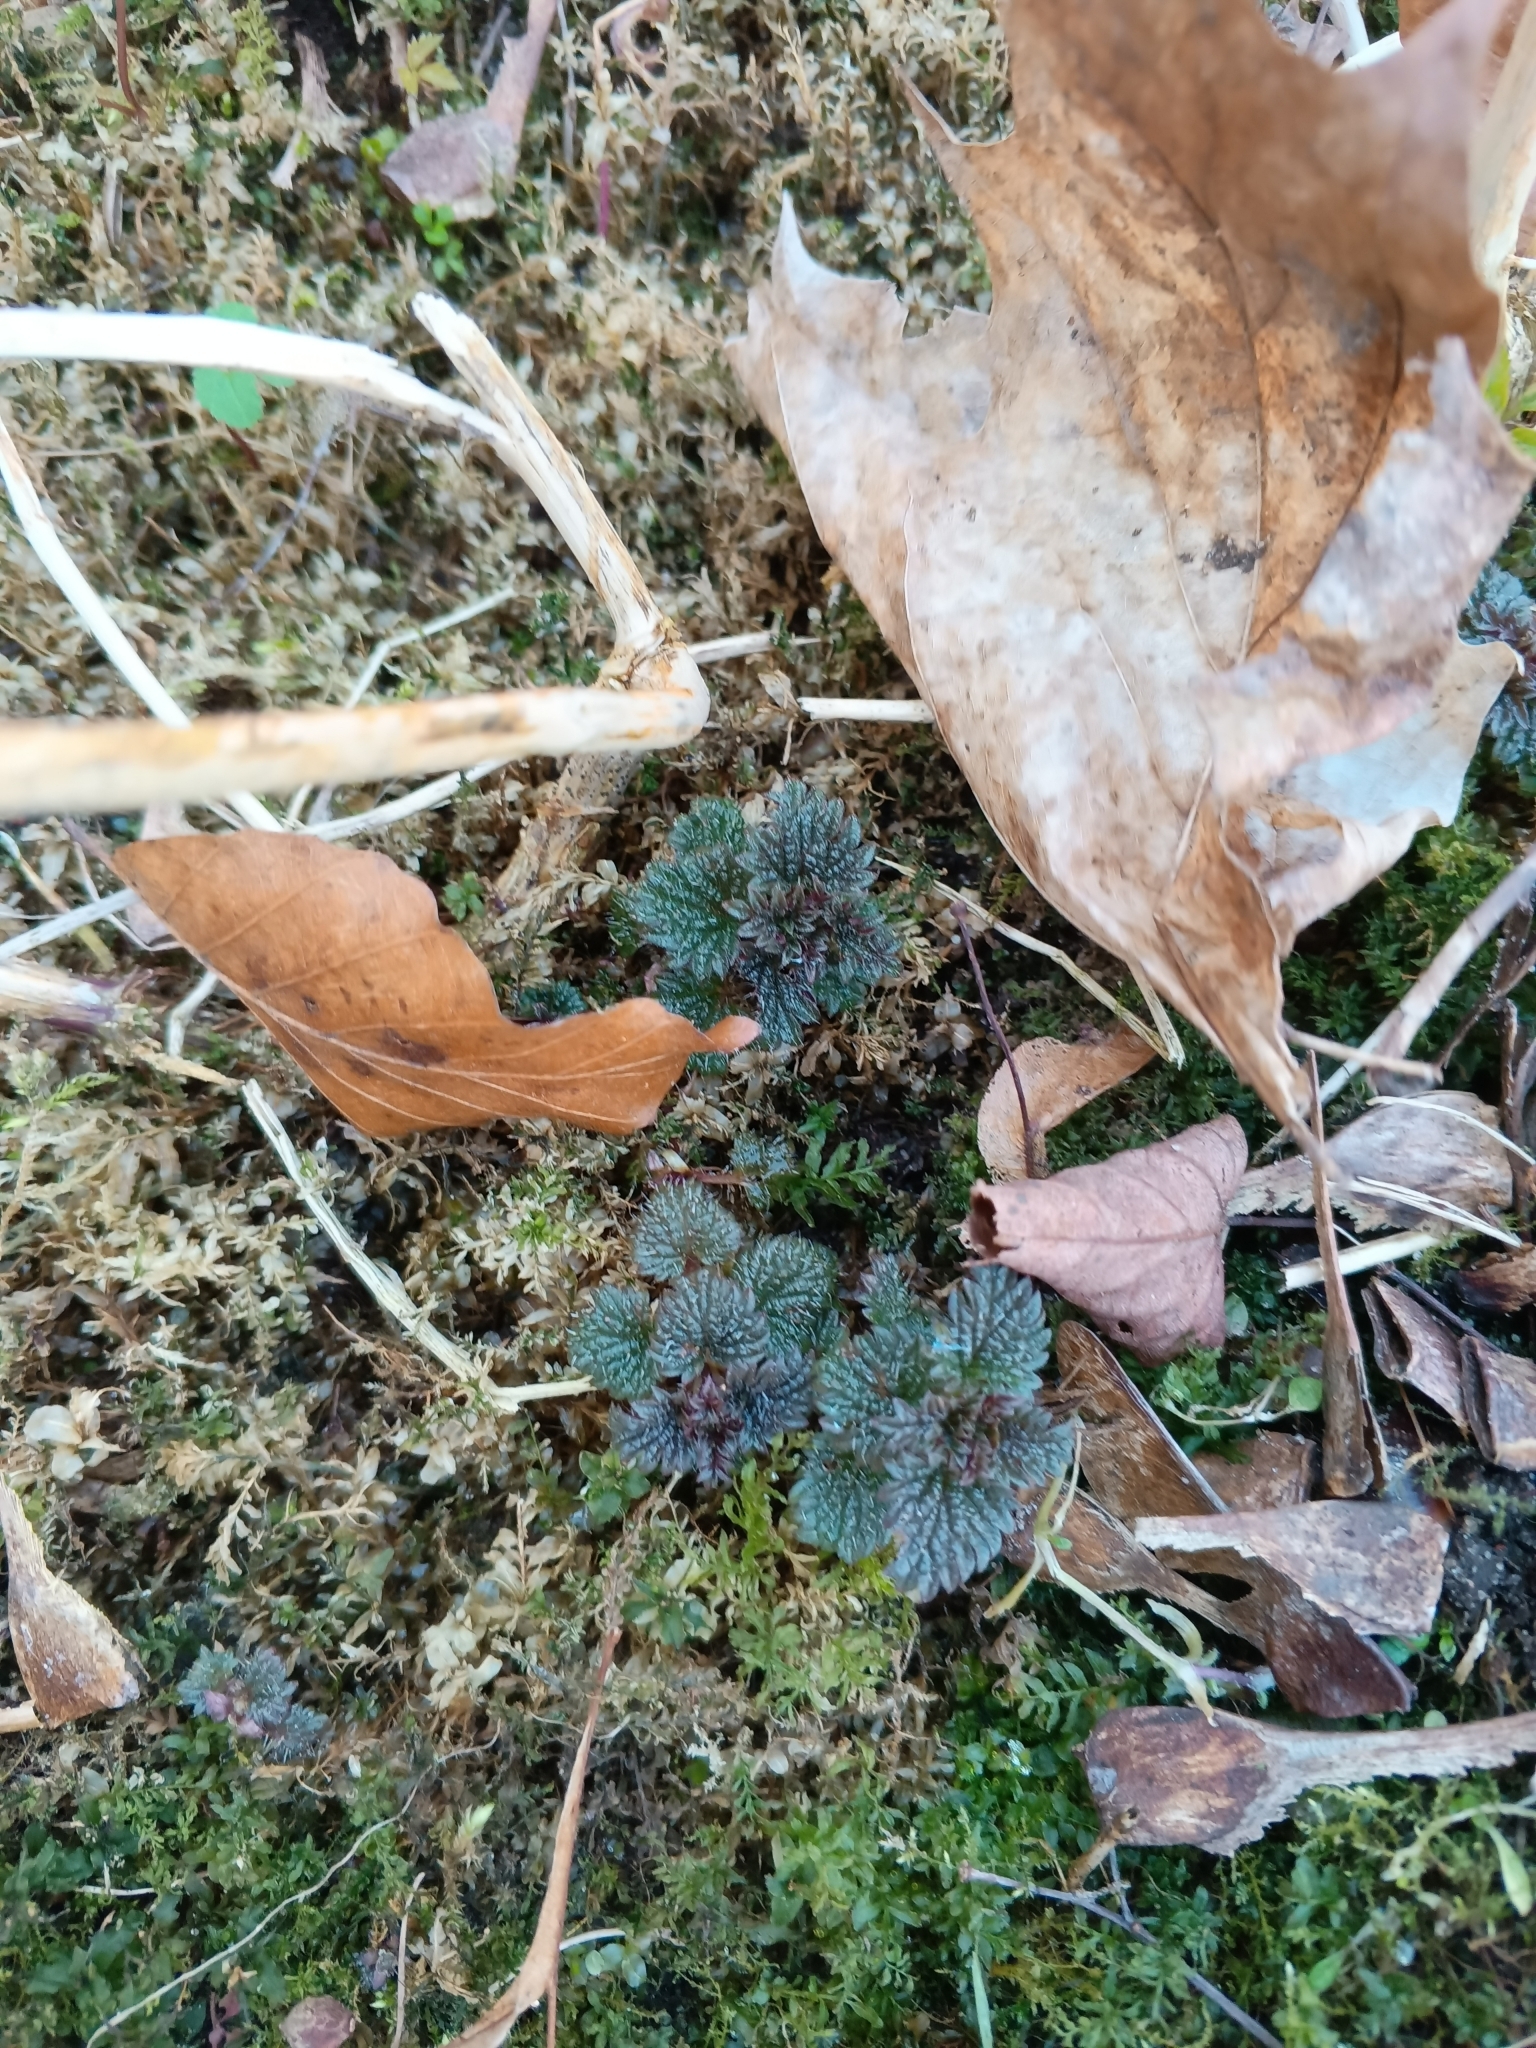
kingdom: Plantae
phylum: Tracheophyta
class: Magnoliopsida
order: Rosales
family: Urticaceae
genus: Urtica
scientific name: Urtica dioica
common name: Common nettle
